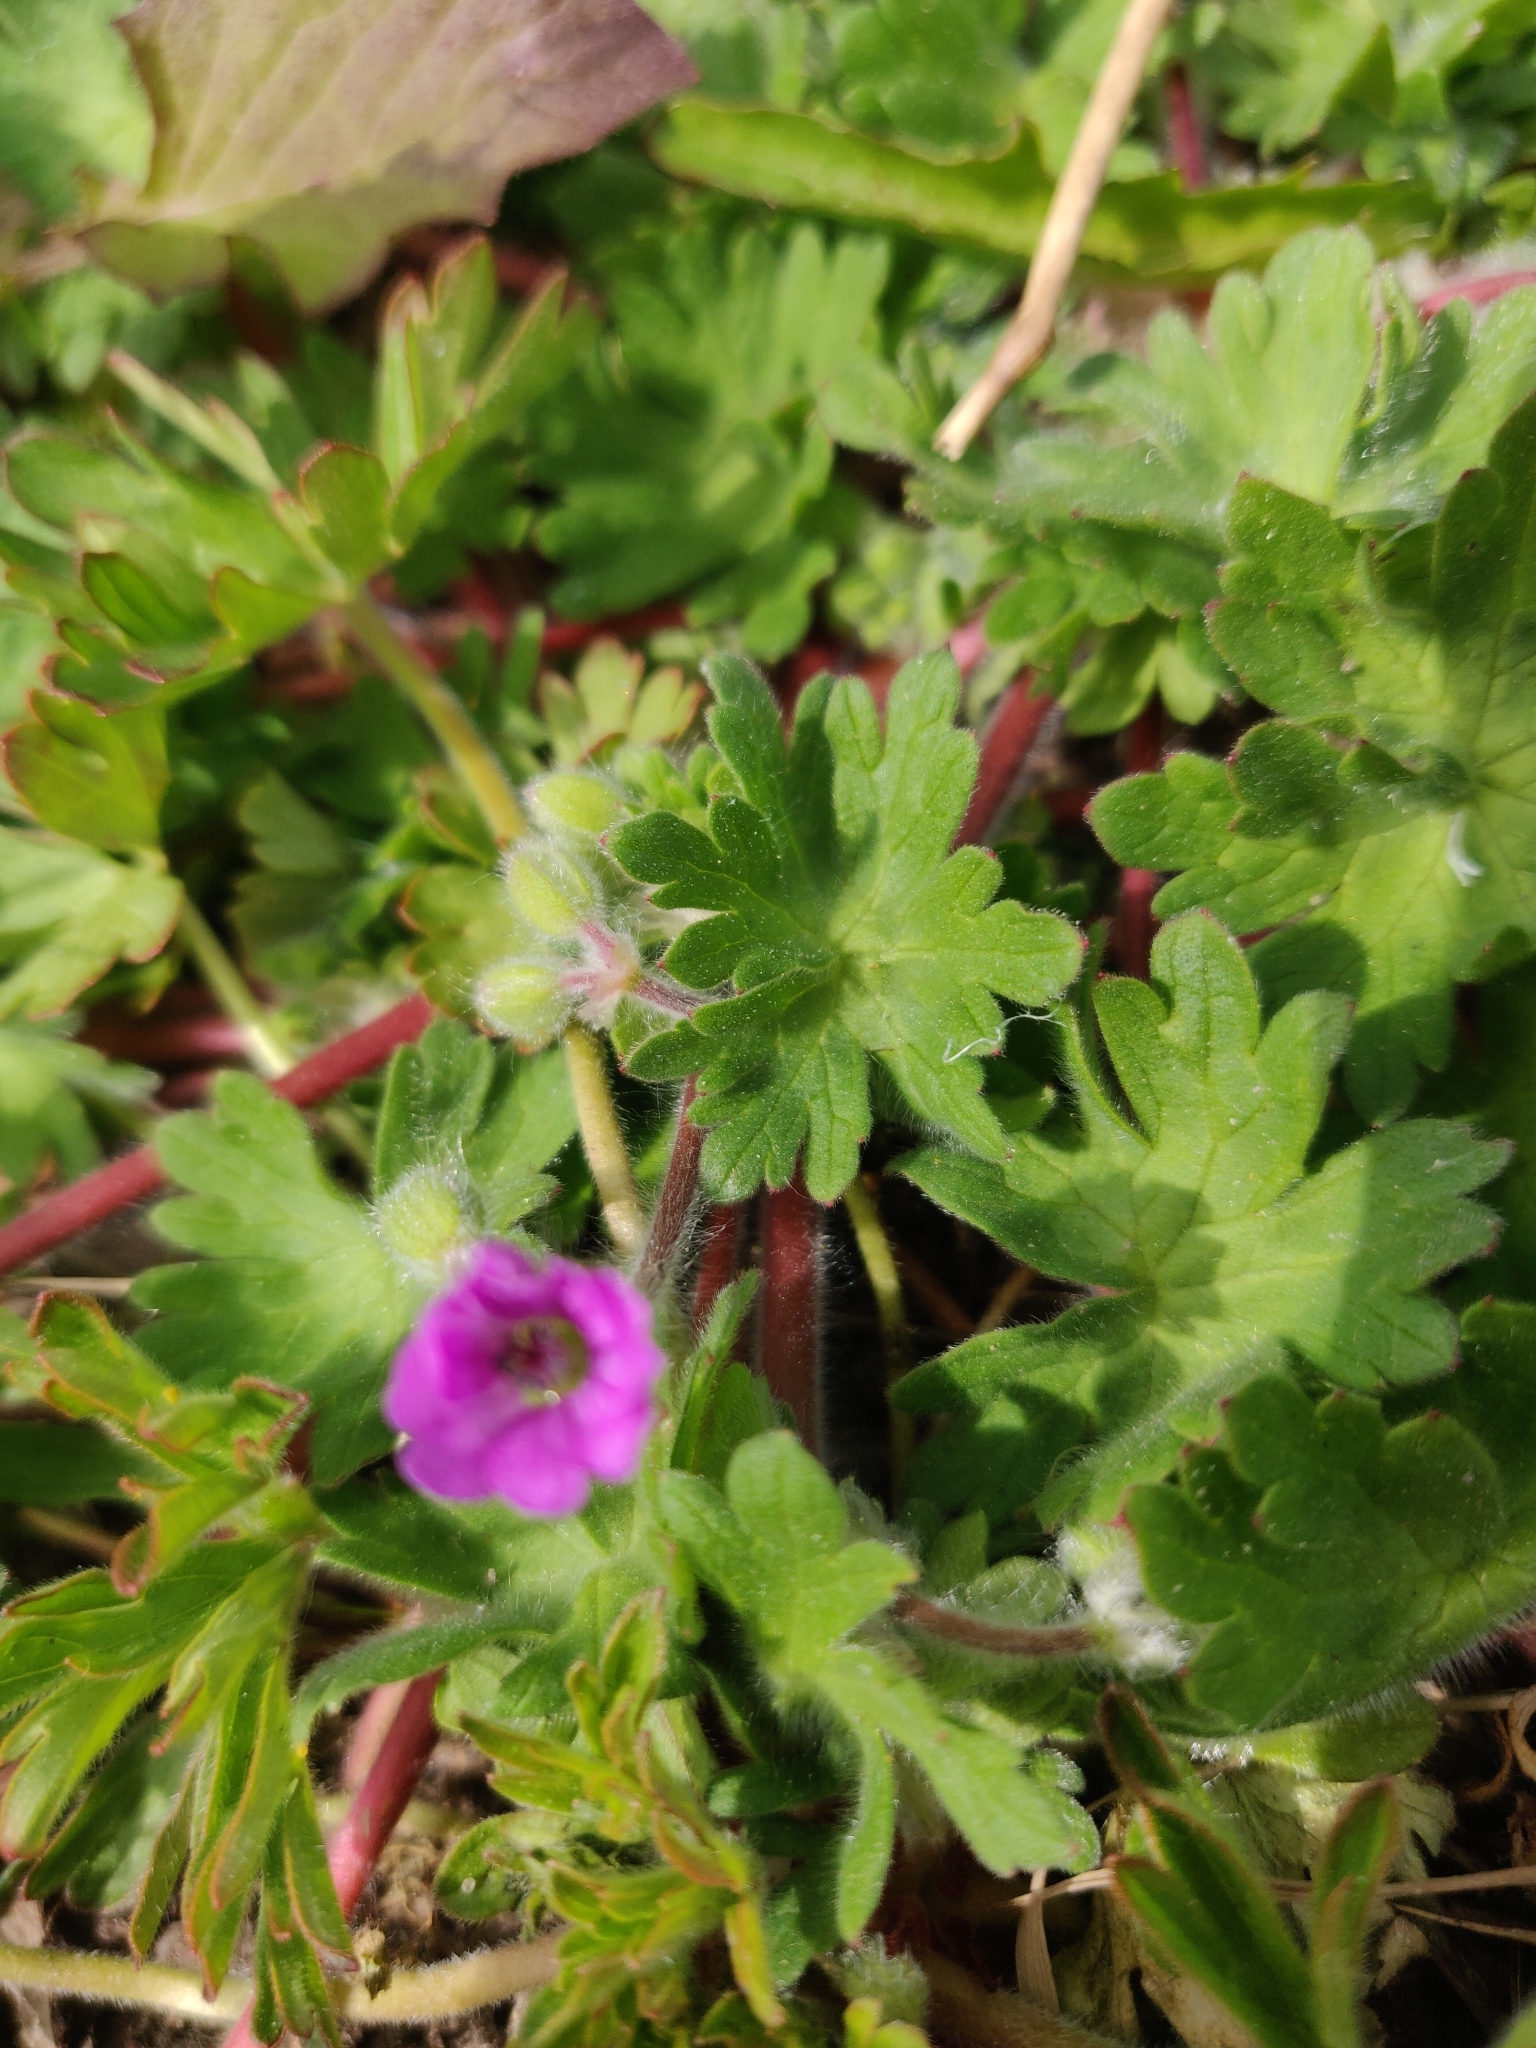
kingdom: Plantae
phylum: Tracheophyta
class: Magnoliopsida
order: Geraniales
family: Geraniaceae
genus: Geranium
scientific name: Geranium molle
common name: Dove's-foot crane's-bill
